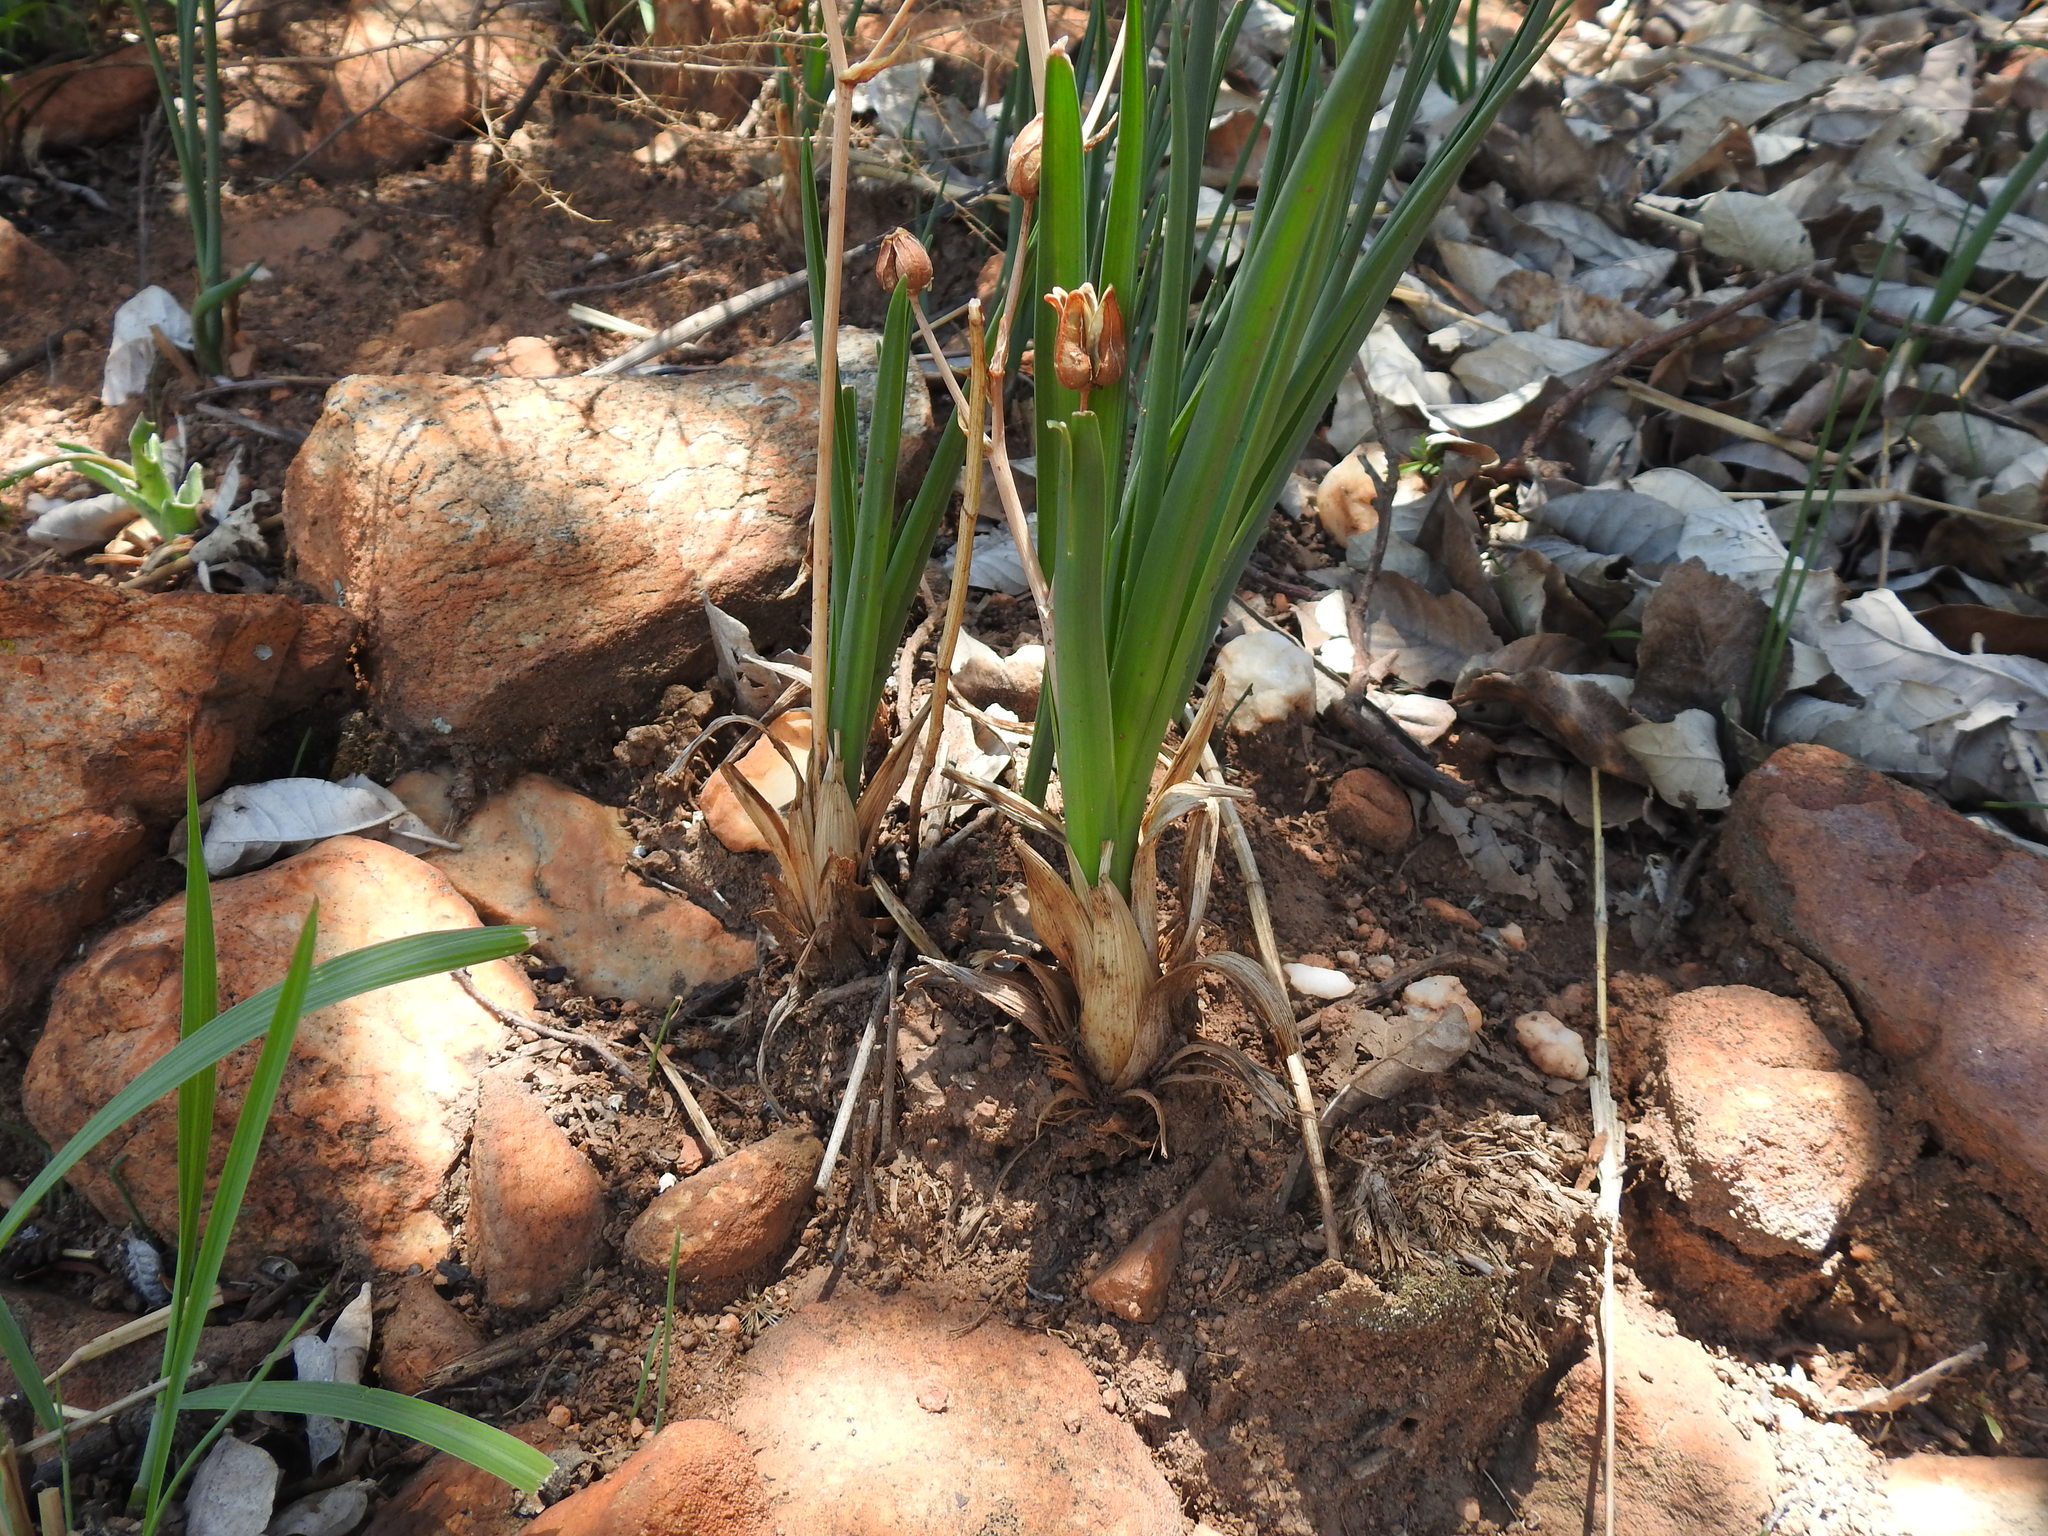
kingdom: Plantae
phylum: Tracheophyta
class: Liliopsida
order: Asparagales
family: Asparagaceae
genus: Albuca
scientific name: Albuca setosa
